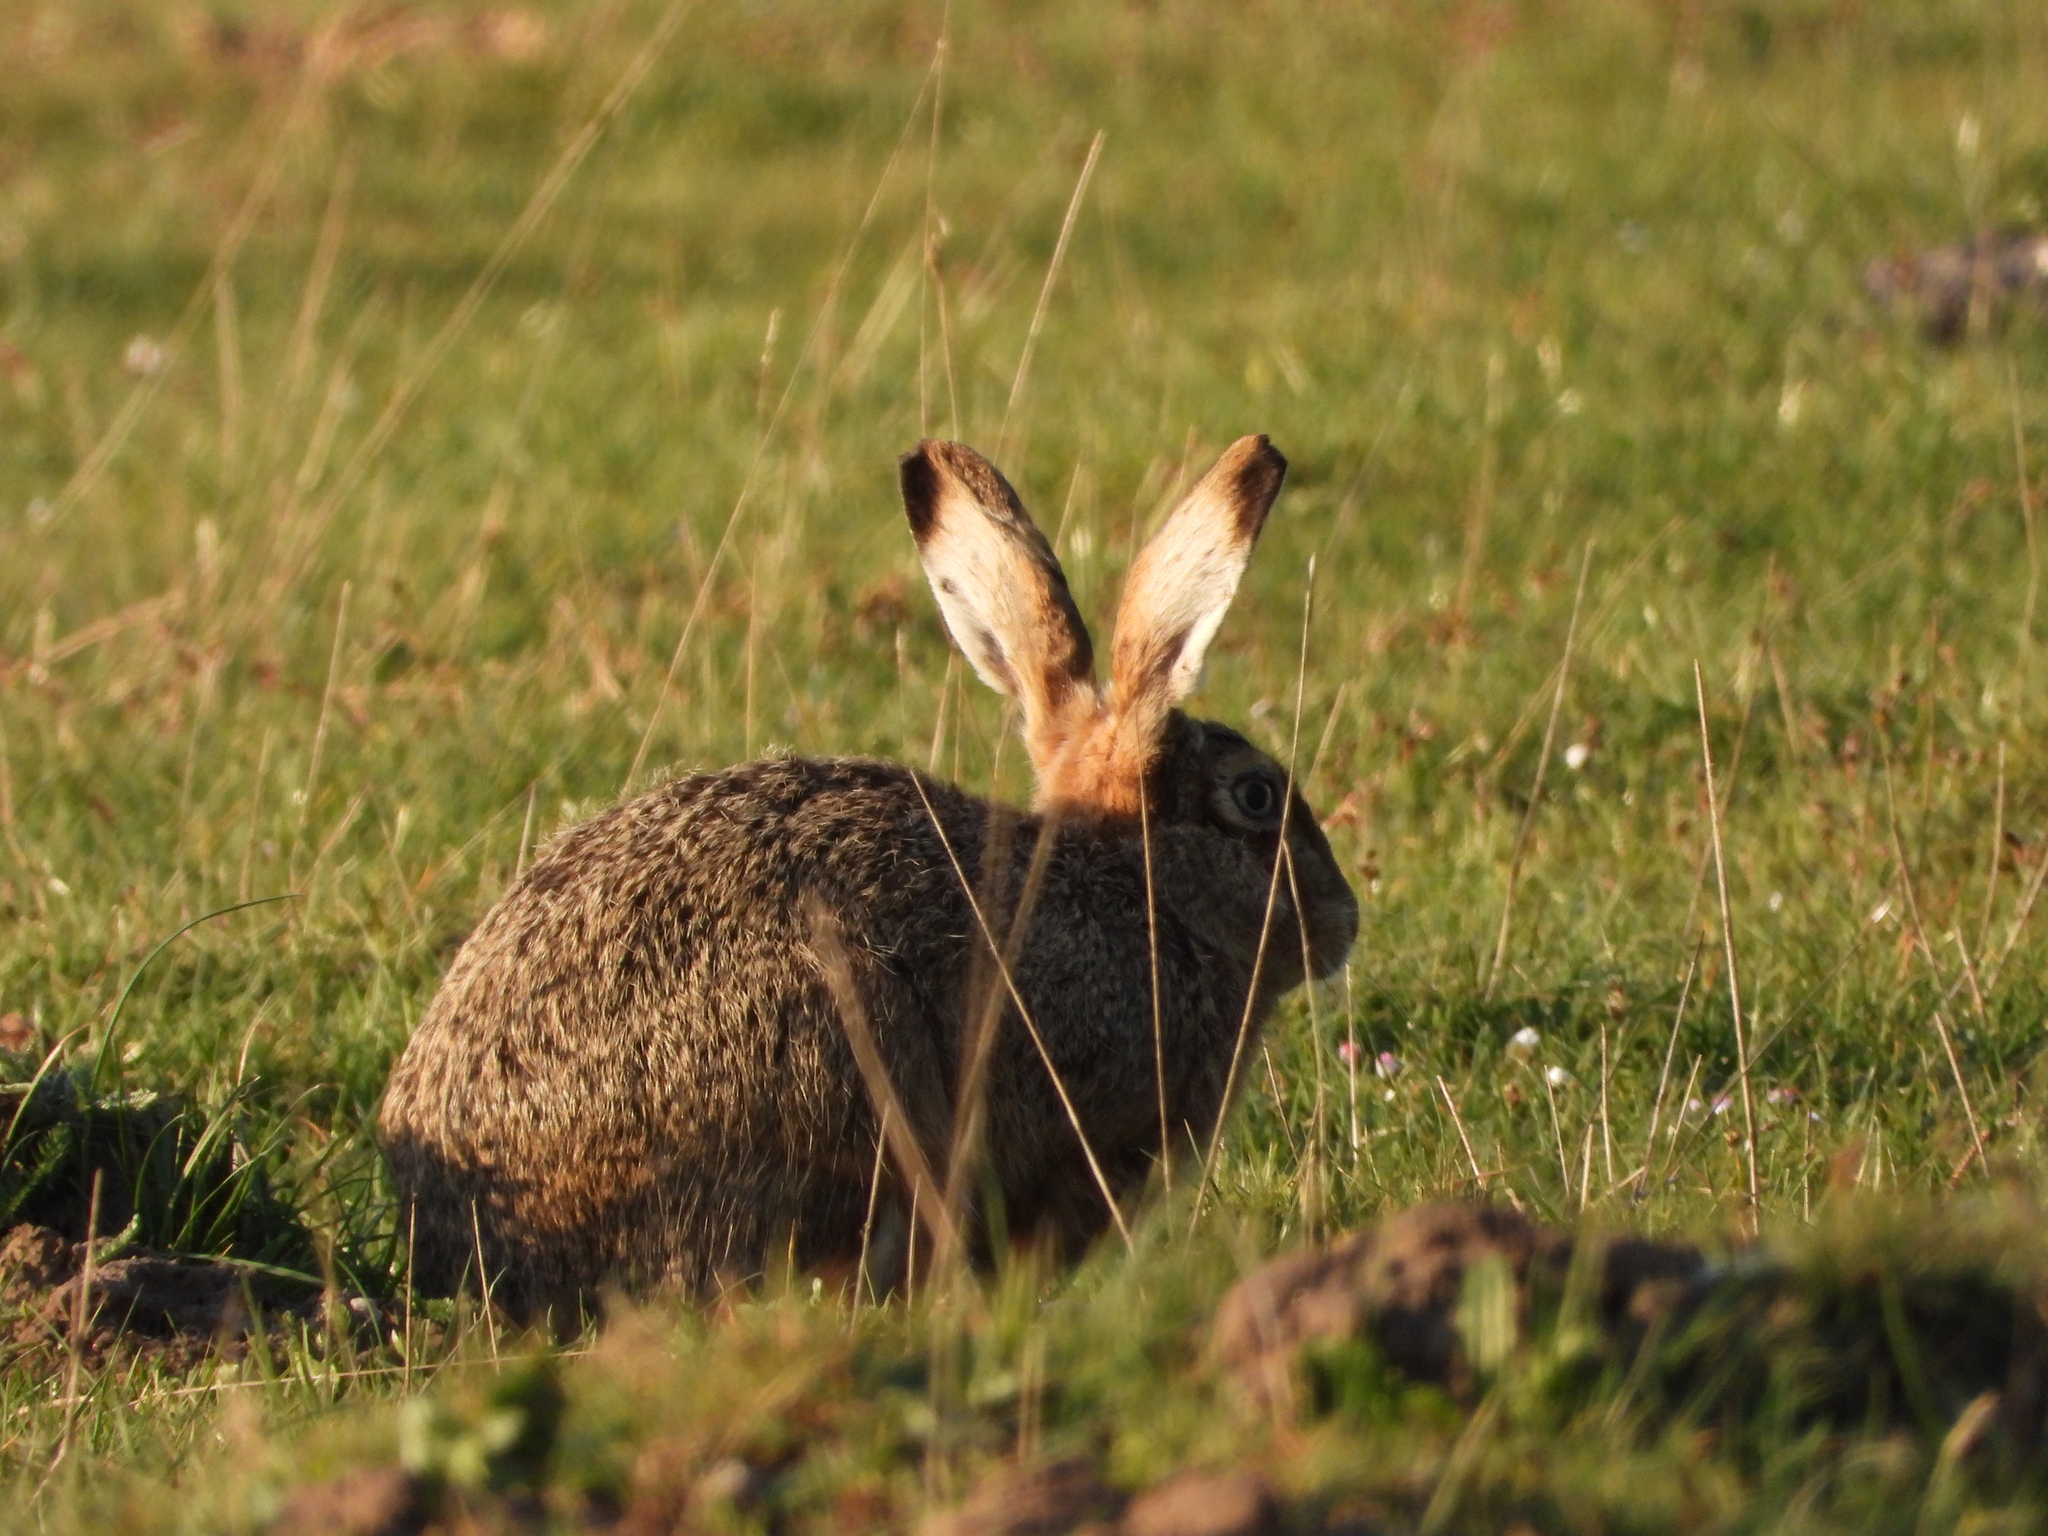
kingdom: Animalia
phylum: Chordata
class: Mammalia
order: Lagomorpha
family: Leporidae
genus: Lepus
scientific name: Lepus europaeus
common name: European hare
